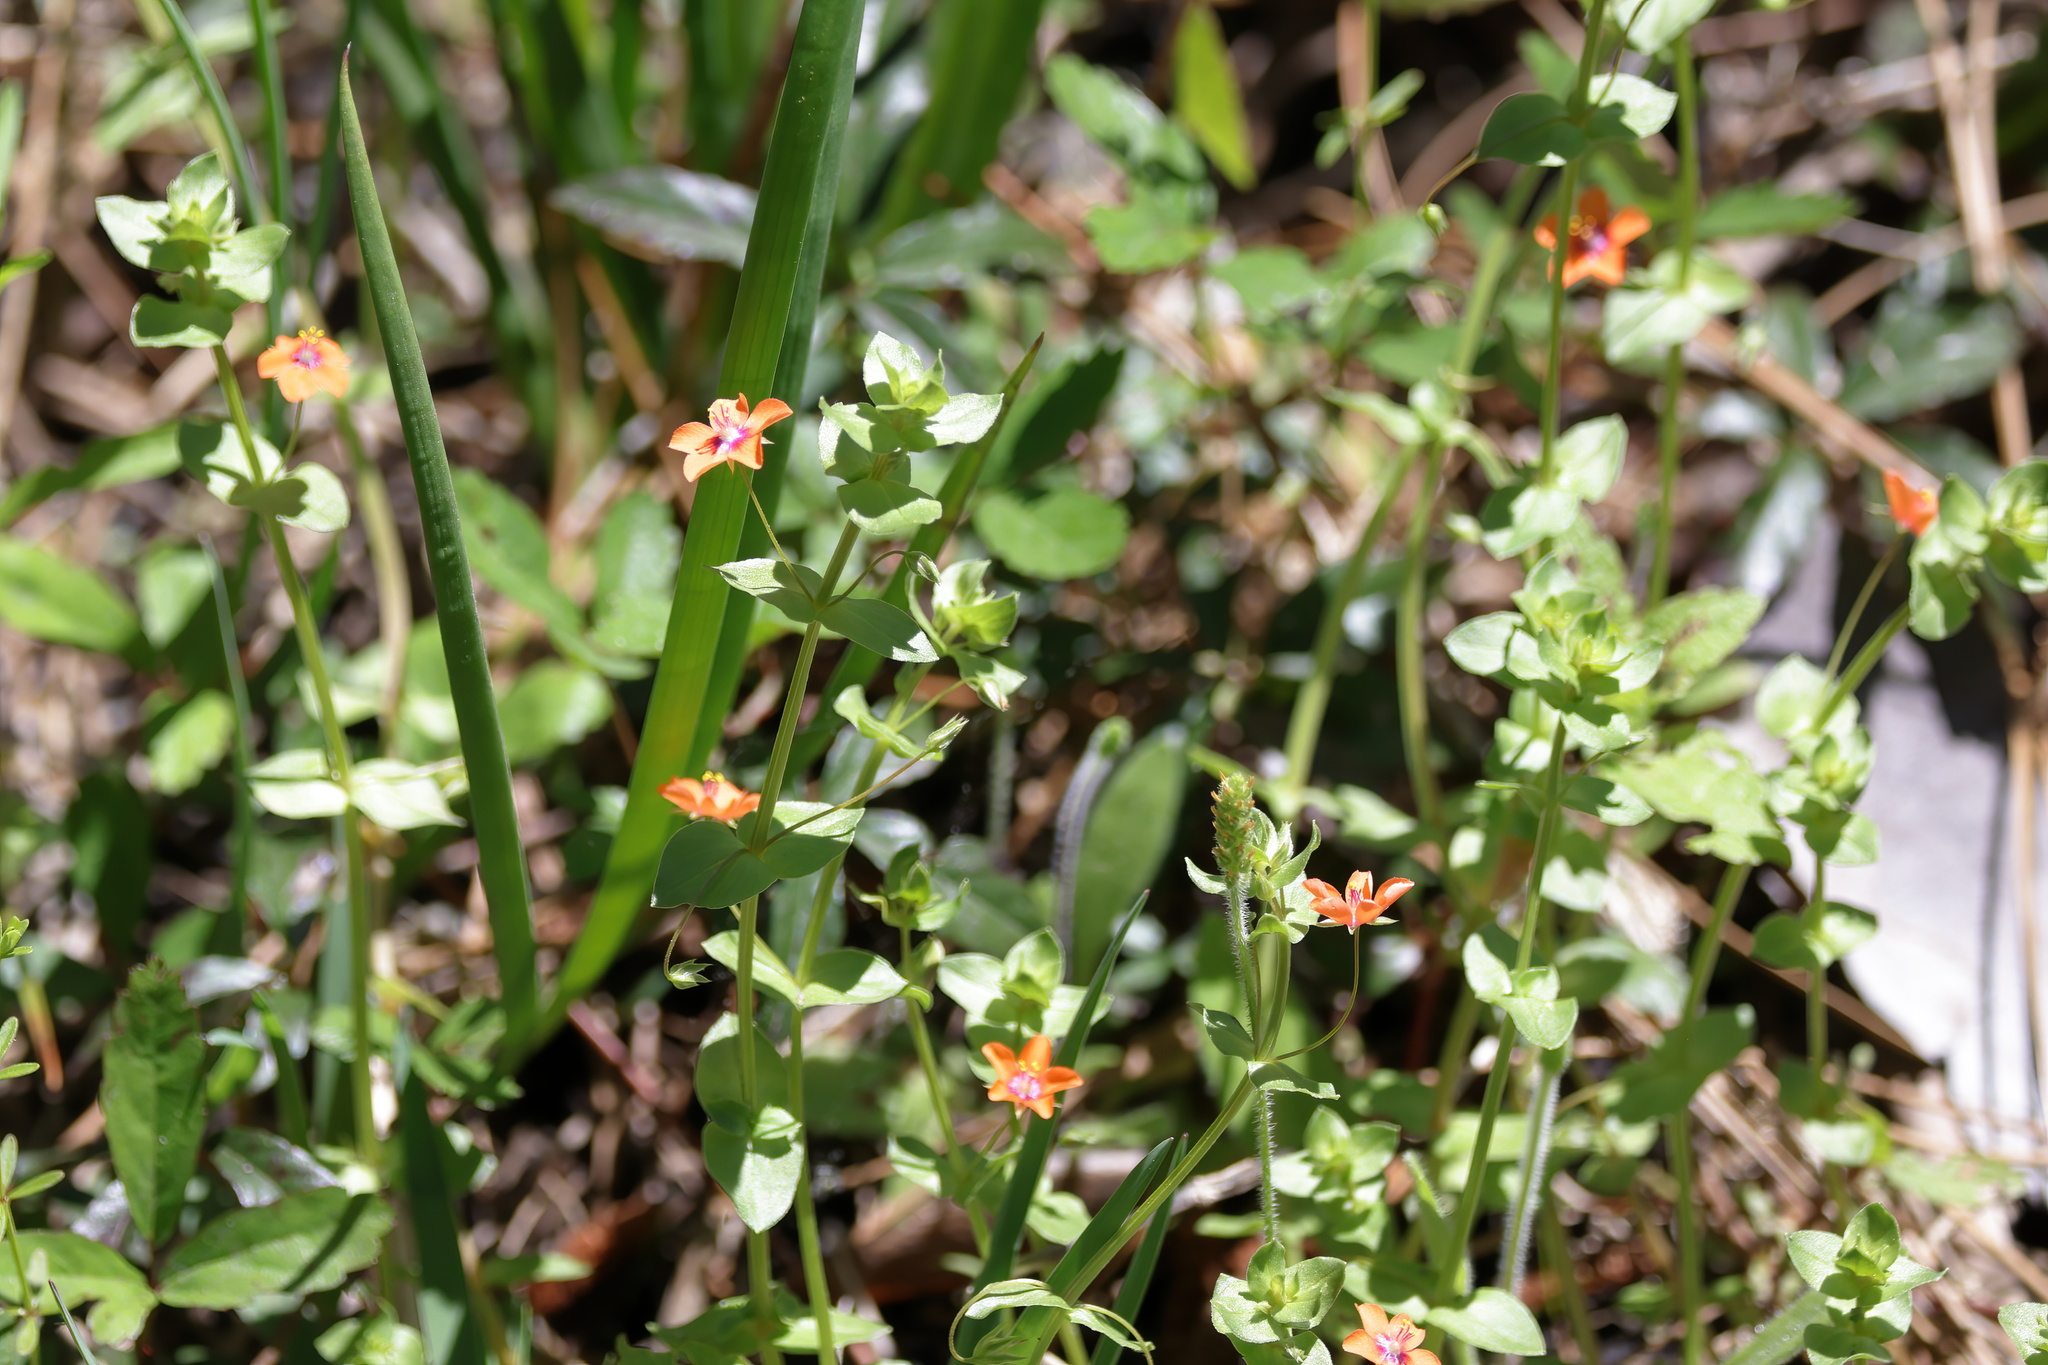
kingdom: Plantae
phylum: Tracheophyta
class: Magnoliopsida
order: Ericales
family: Primulaceae
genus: Lysimachia
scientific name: Lysimachia arvensis
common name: Scarlet pimpernel
